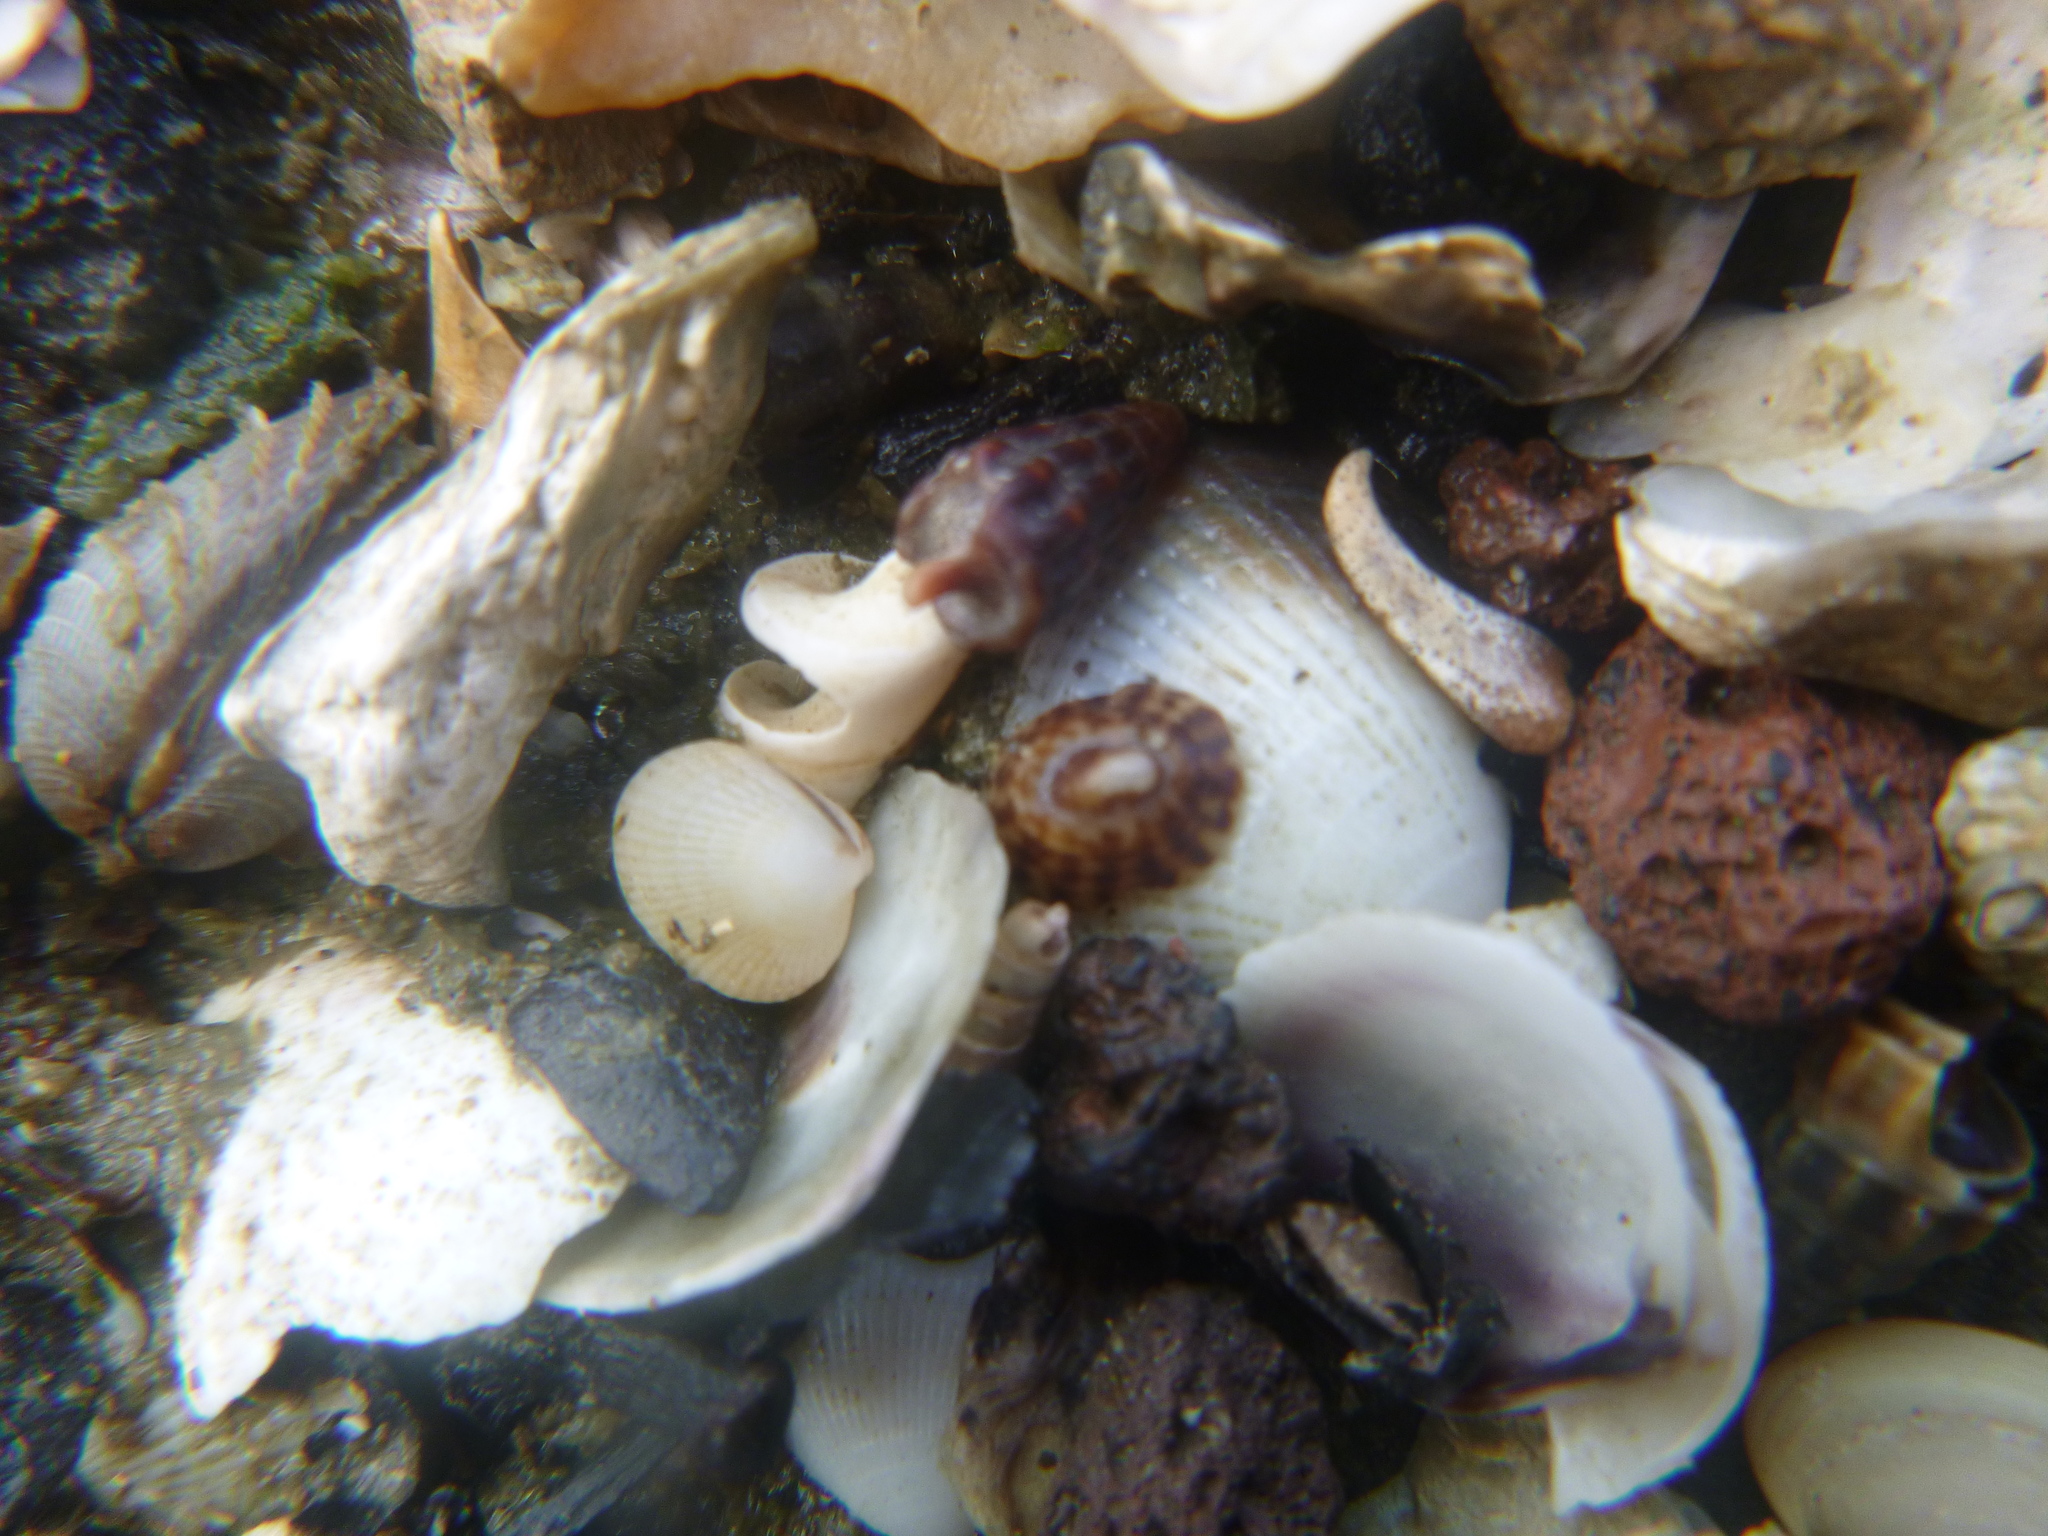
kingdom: Animalia
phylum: Mollusca
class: Gastropoda
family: Lottiidae
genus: Notoacmea
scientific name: Notoacmea
